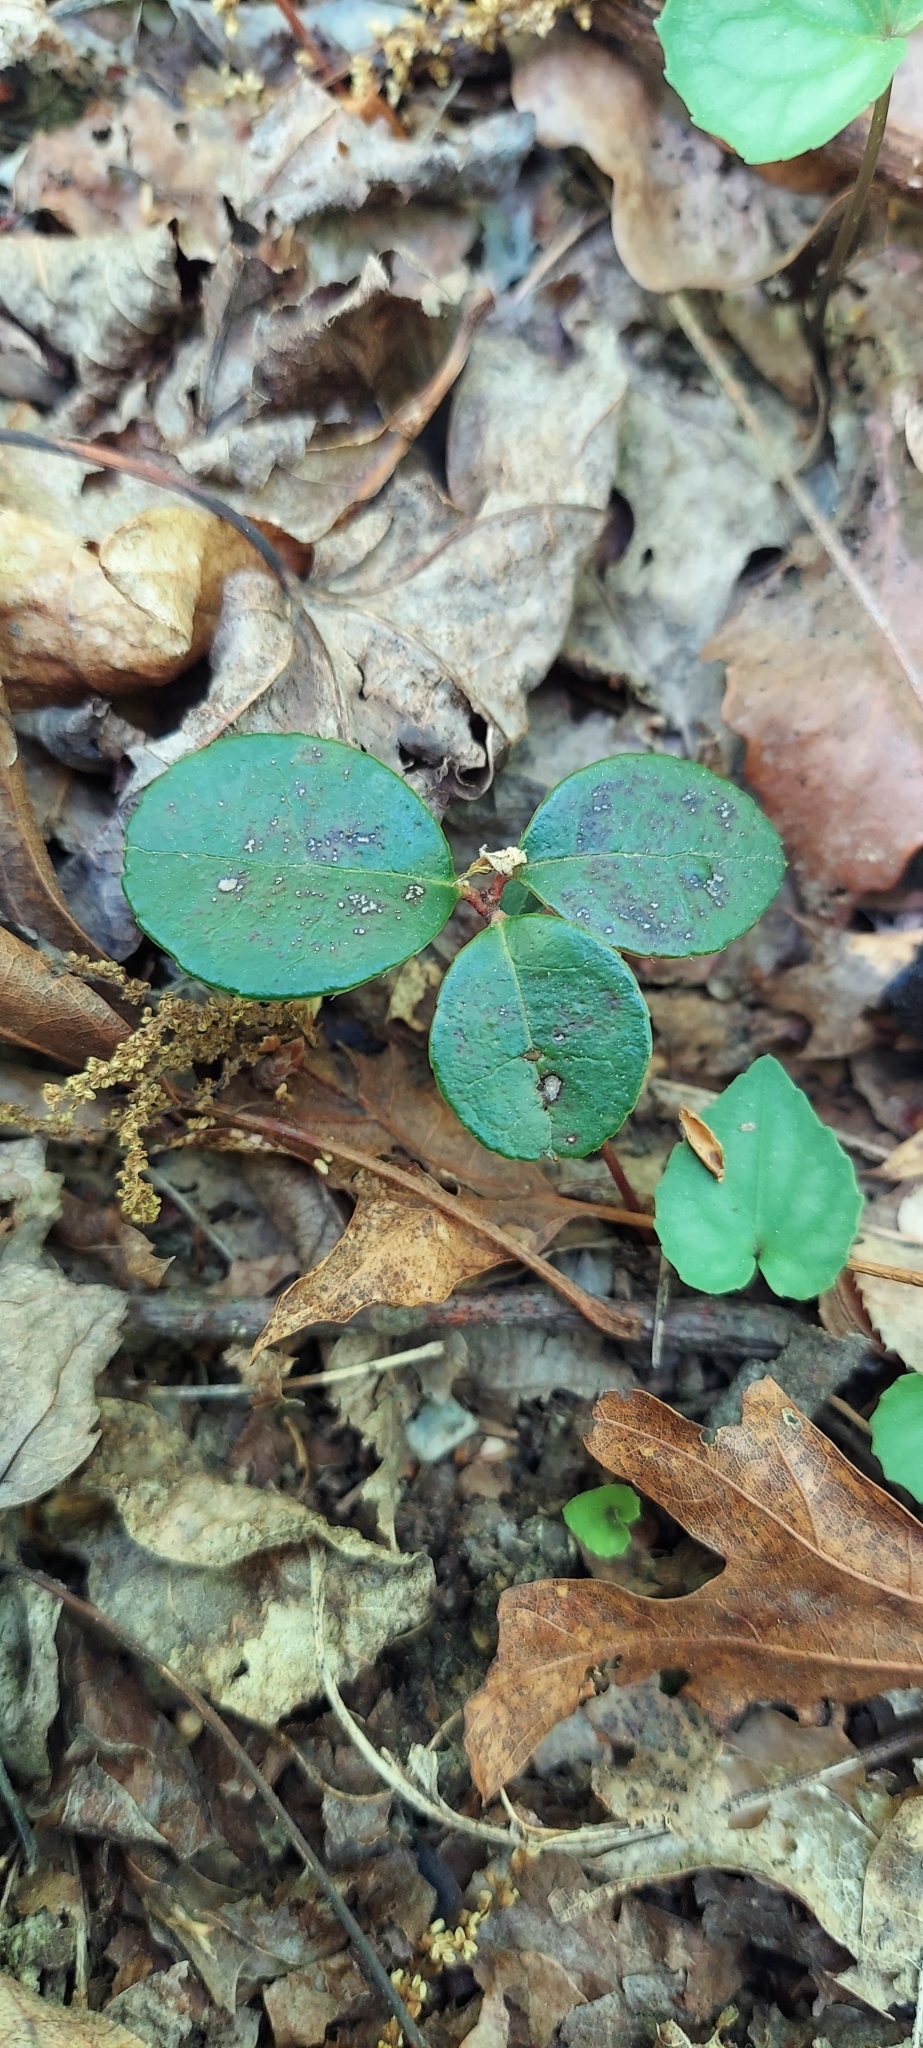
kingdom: Plantae
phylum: Tracheophyta
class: Magnoliopsida
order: Ericales
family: Ericaceae
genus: Gaultheria
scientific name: Gaultheria procumbens
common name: Checkerberry
